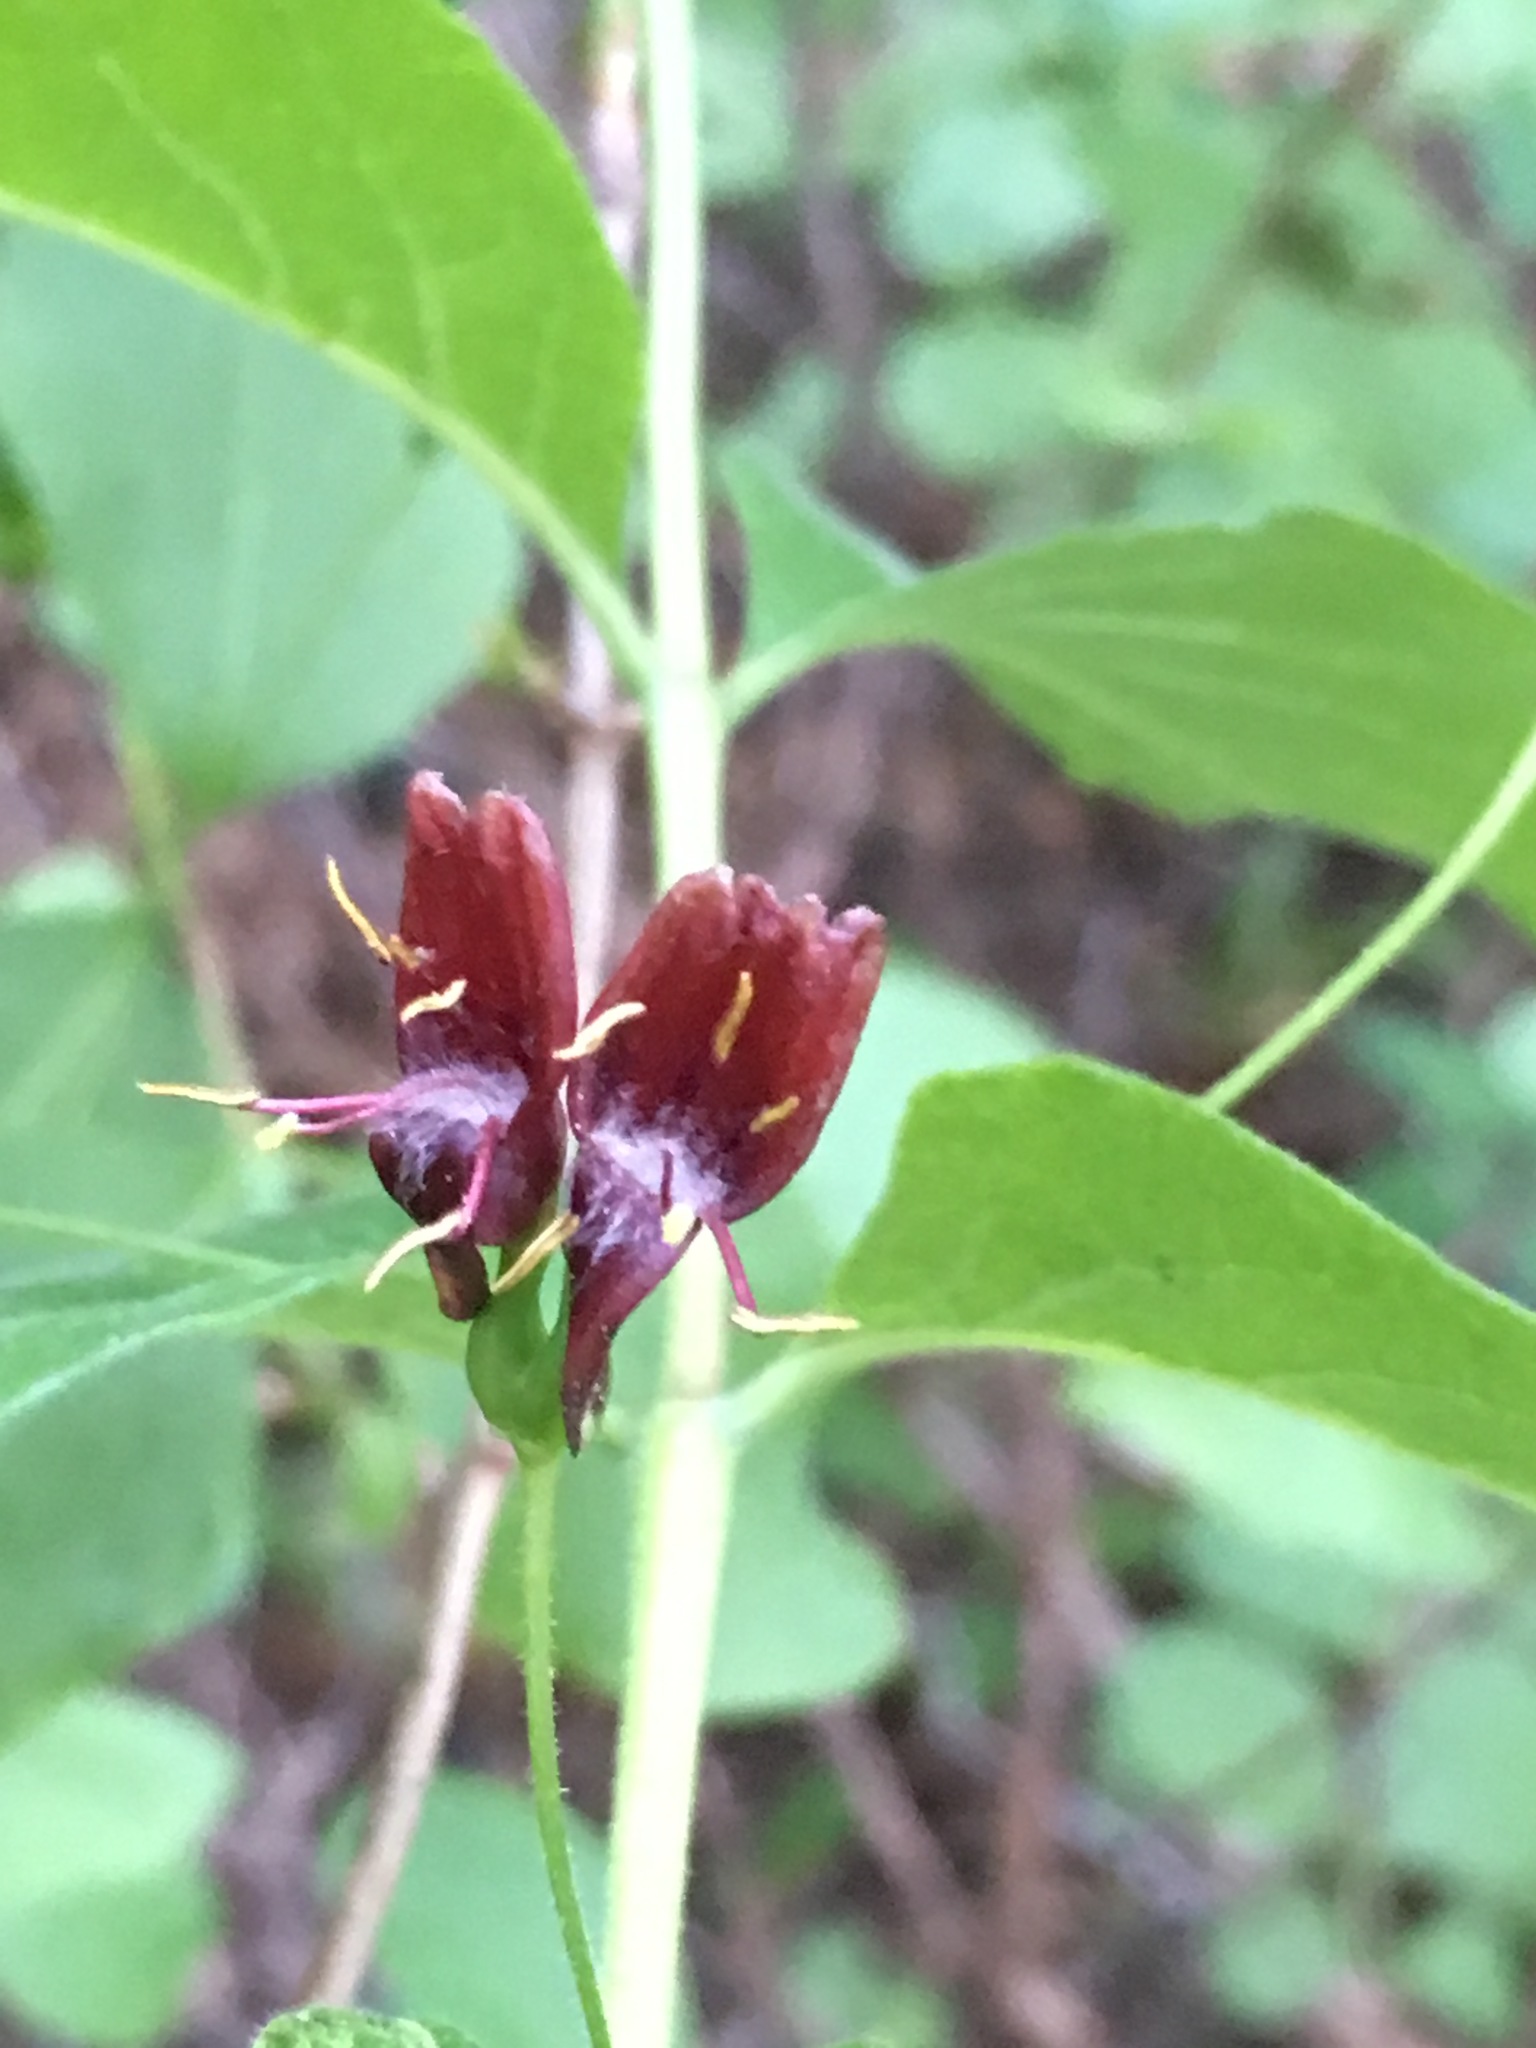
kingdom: Plantae
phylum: Tracheophyta
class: Magnoliopsida
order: Dipsacales
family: Caprifoliaceae
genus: Lonicera
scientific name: Lonicera conjugialis
